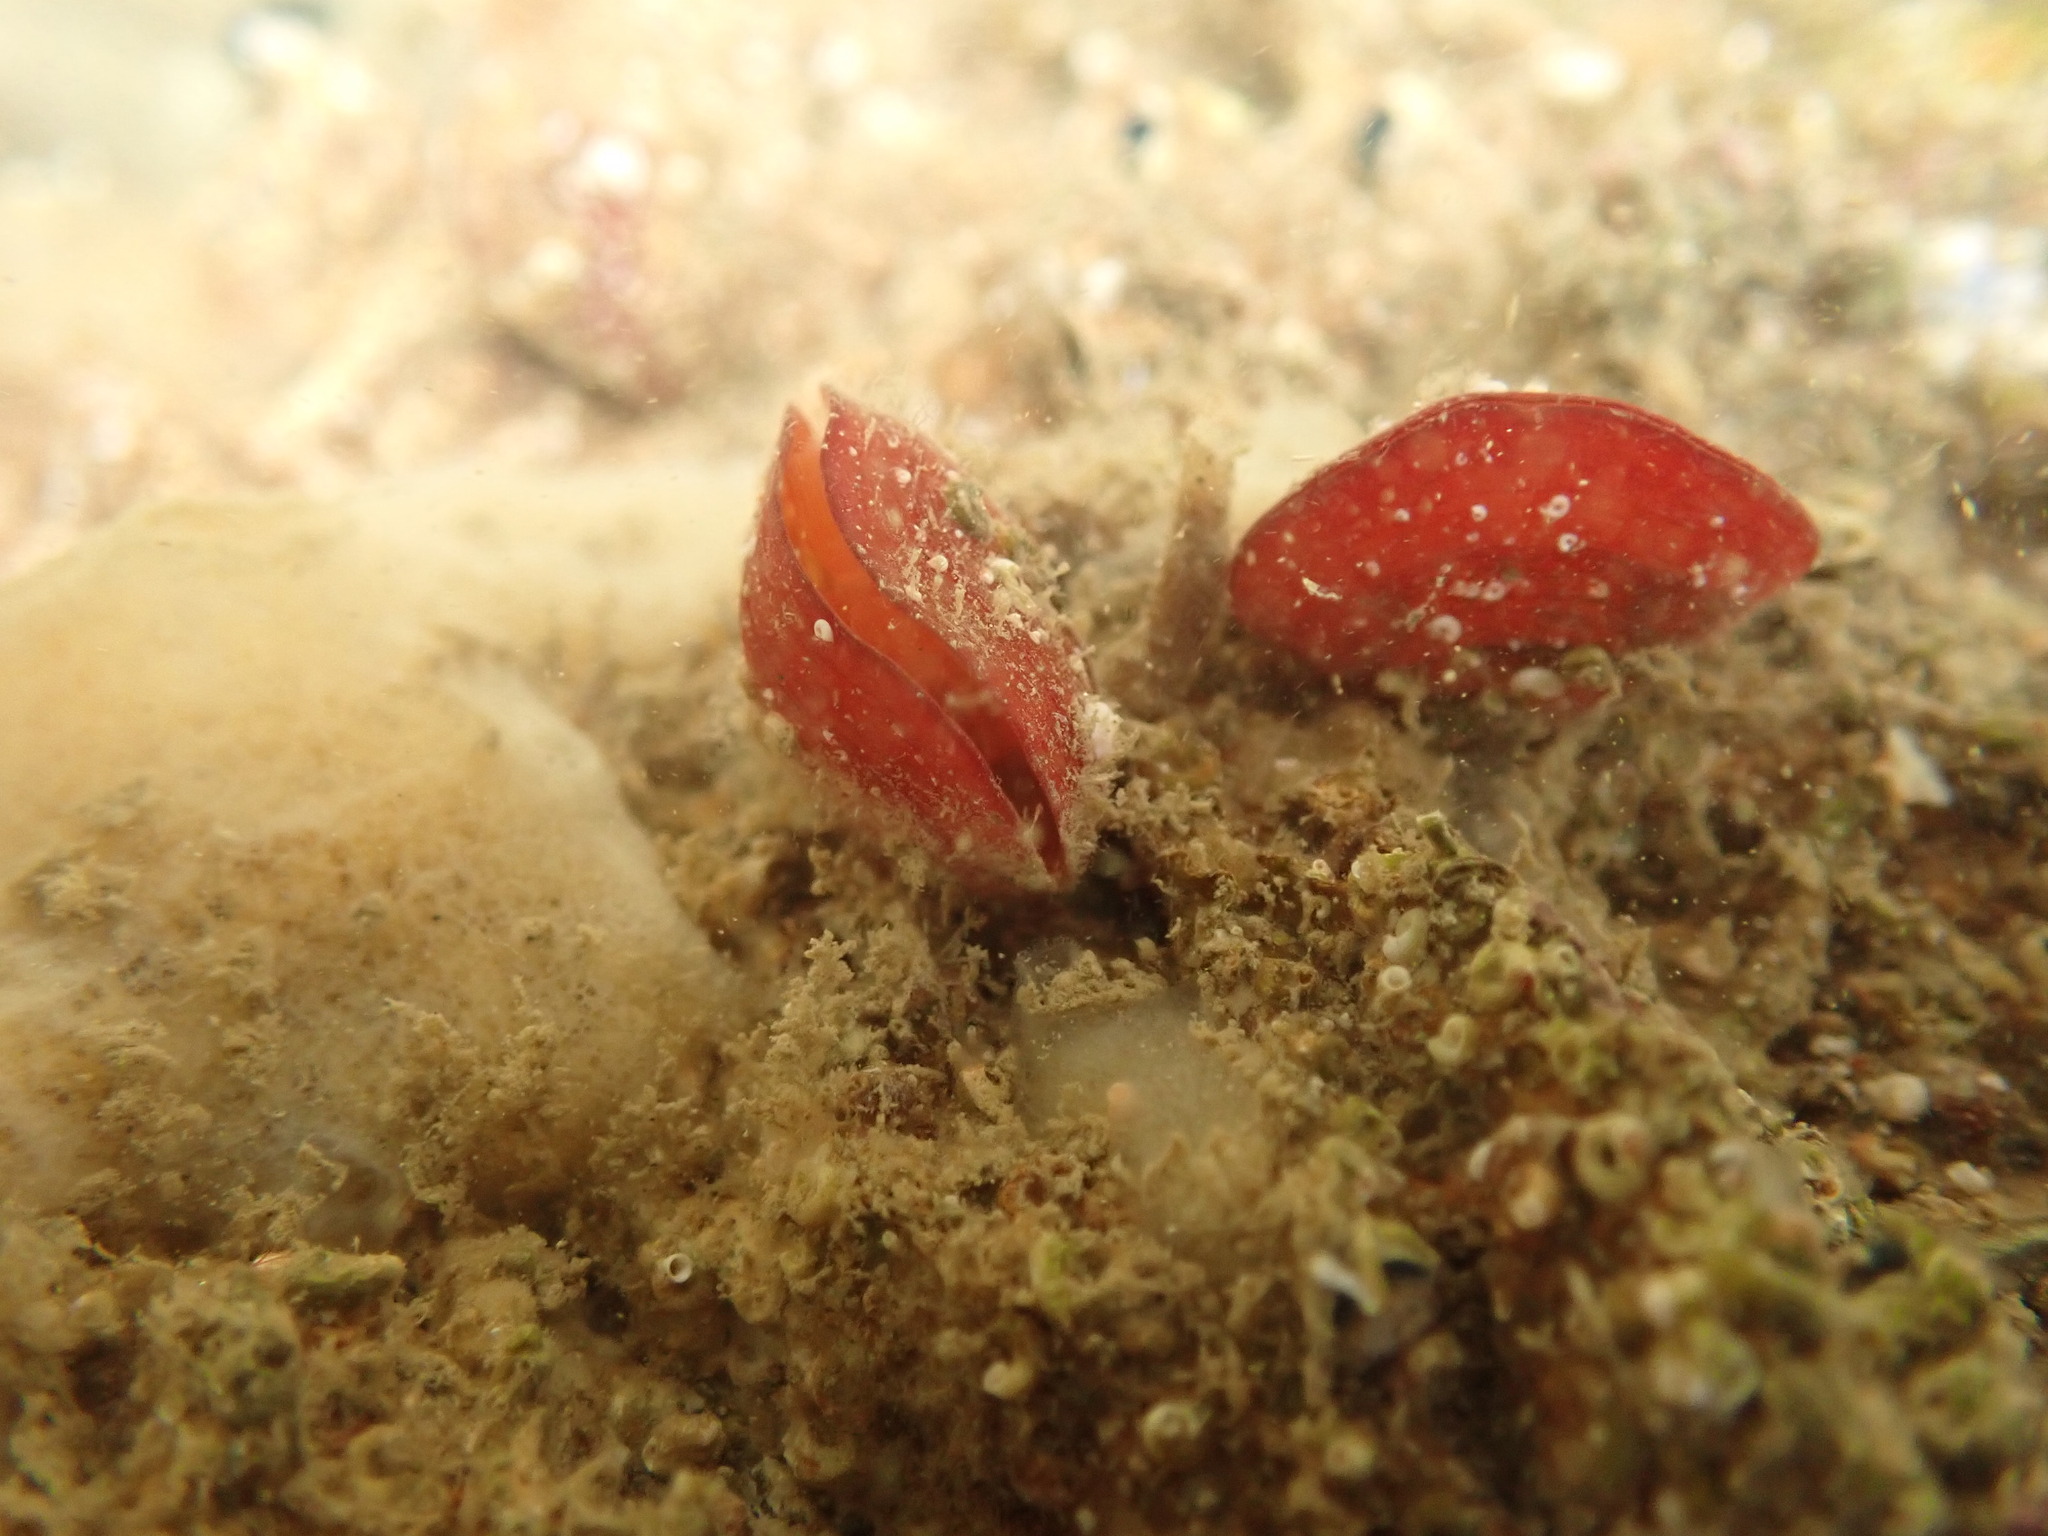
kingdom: Animalia
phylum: Brachiopoda
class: Rhynchonellata
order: Terebratulida
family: Terebratellidae
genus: Calloria
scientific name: Calloria inconspicua
